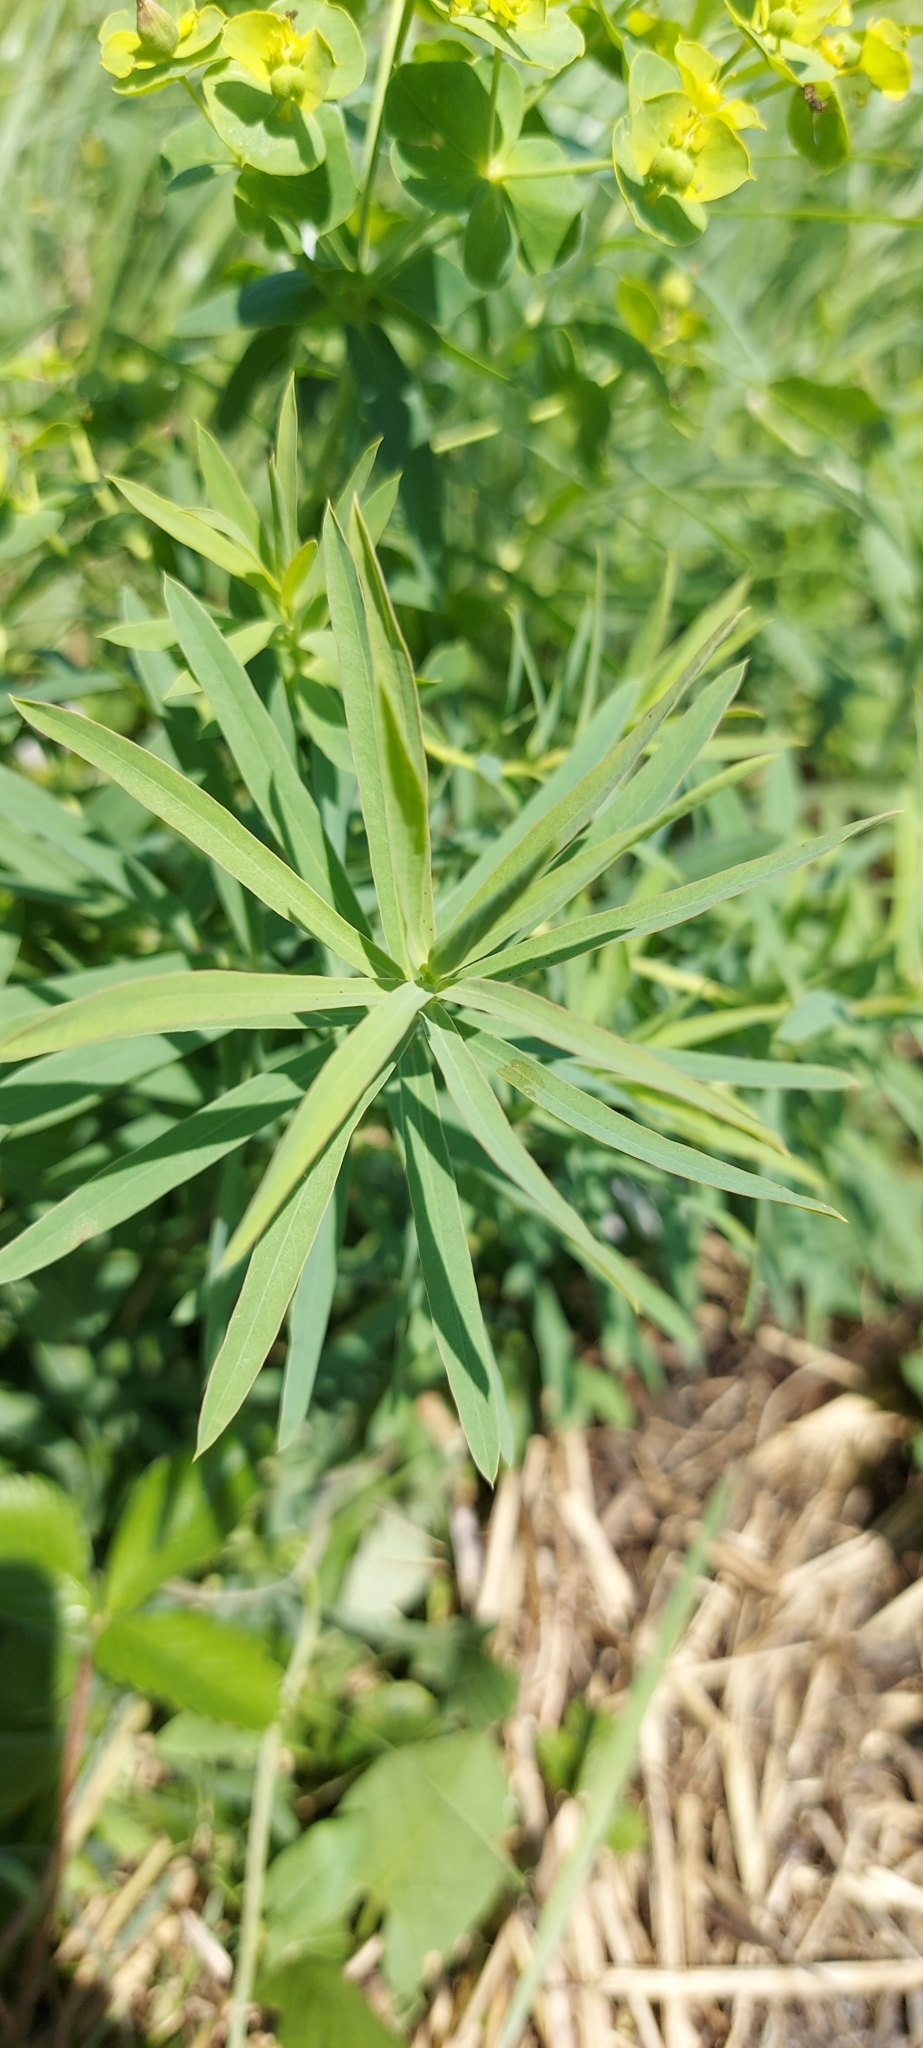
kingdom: Plantae
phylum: Tracheophyta
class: Magnoliopsida
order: Malpighiales
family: Euphorbiaceae
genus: Euphorbia
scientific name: Euphorbia virgata
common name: Leafy spurge
